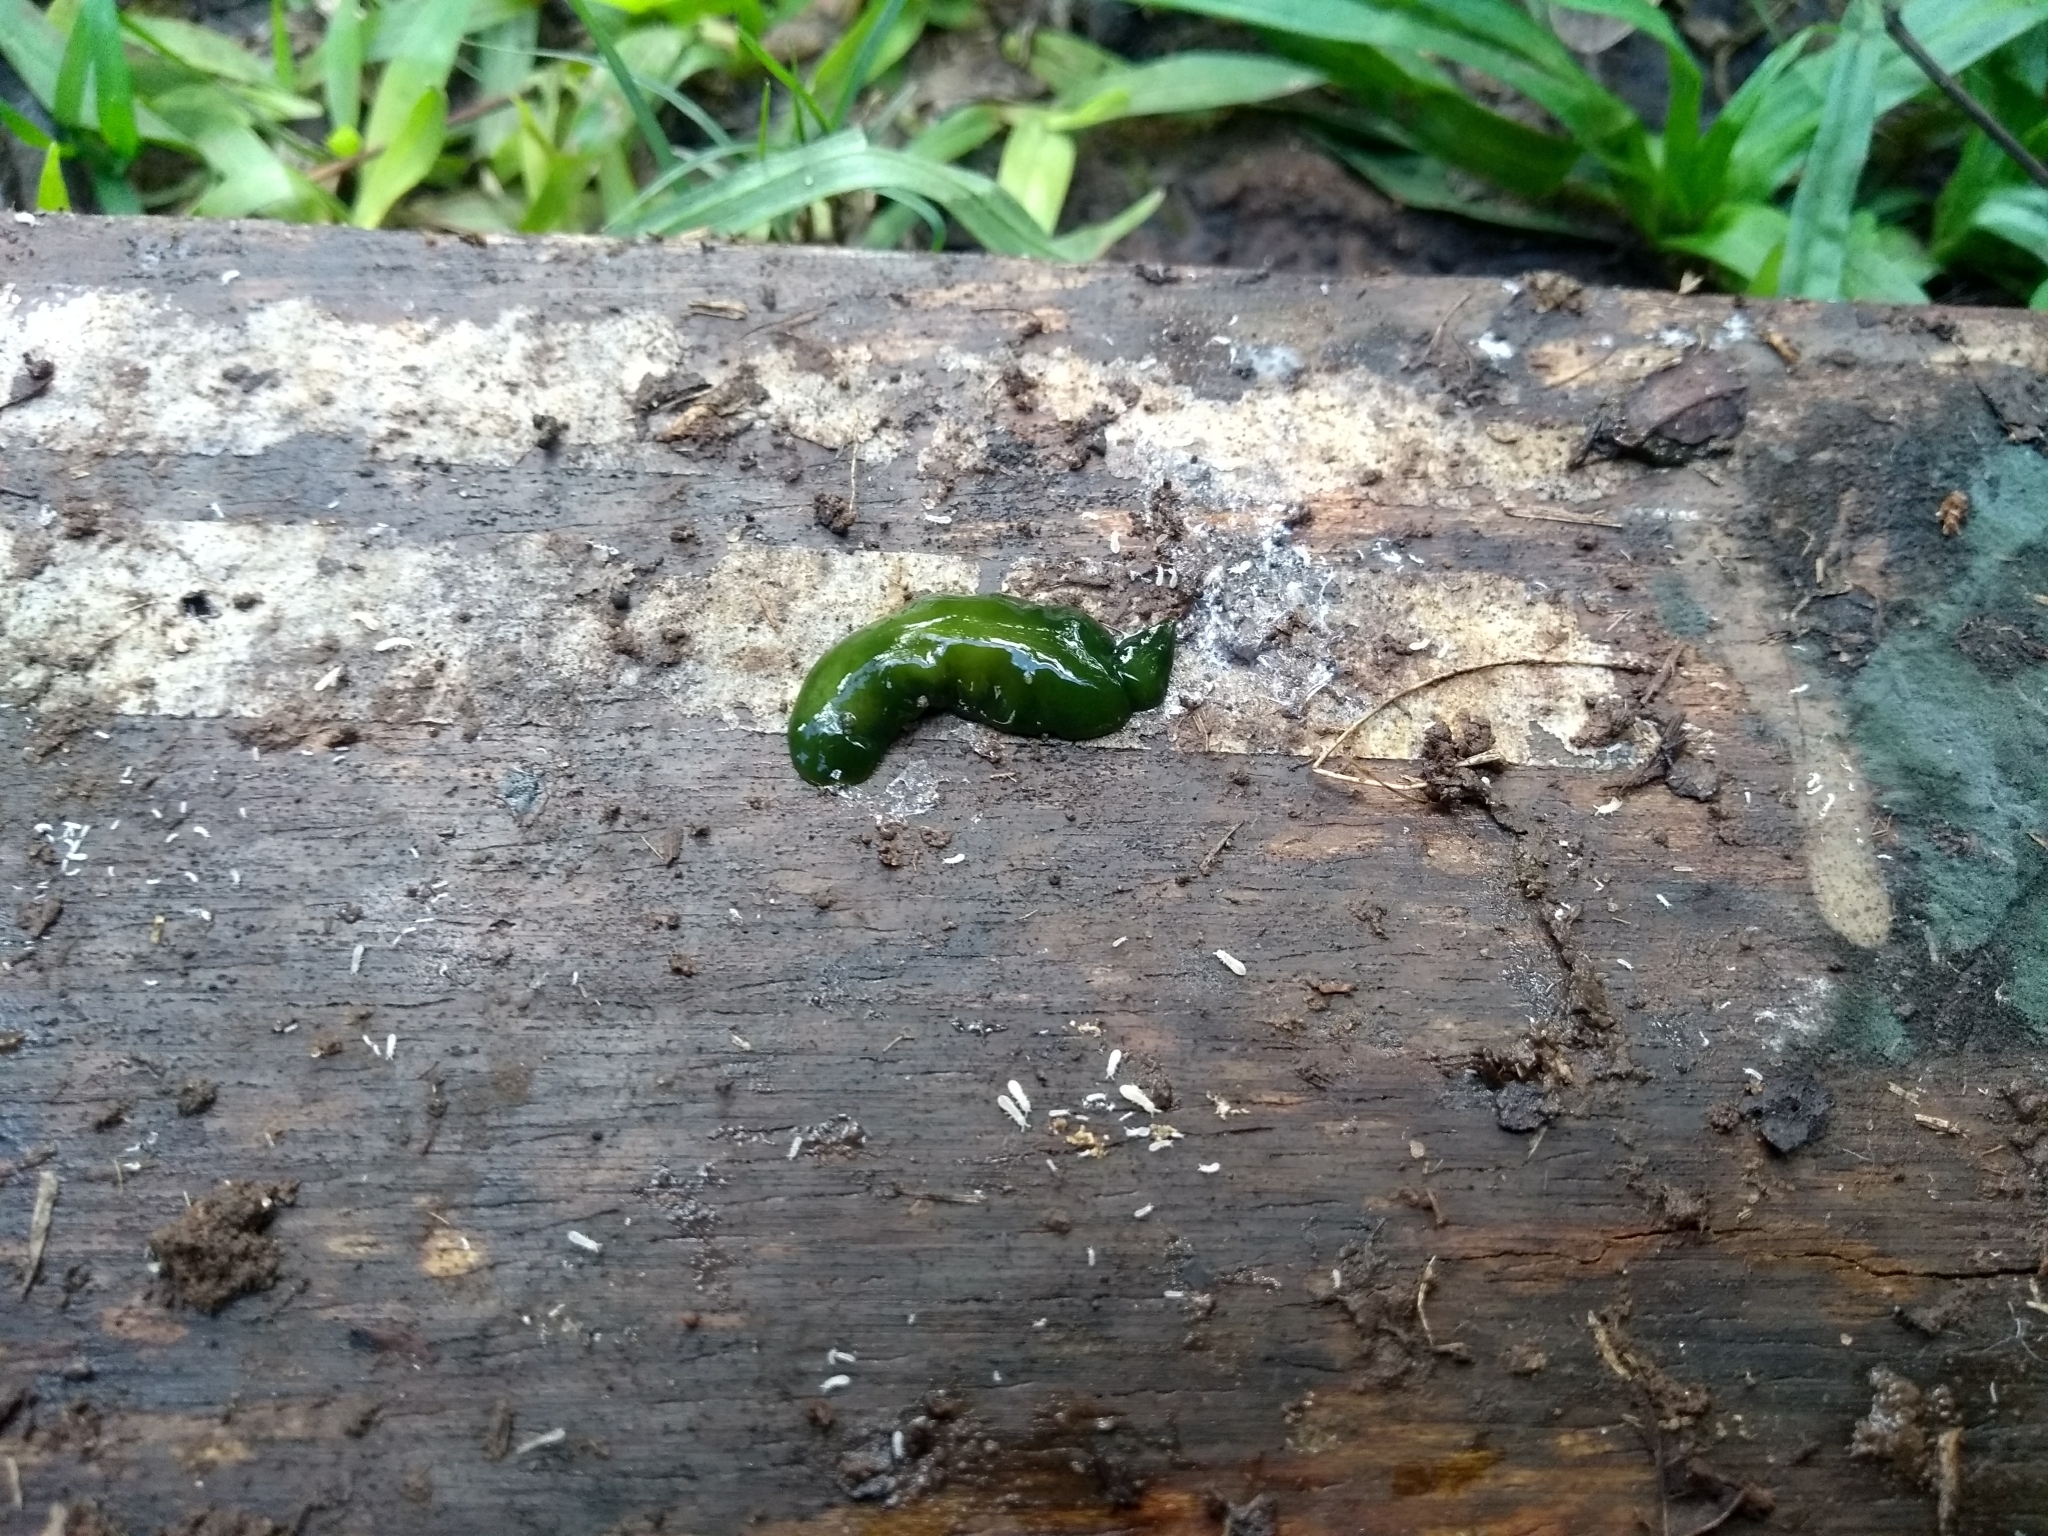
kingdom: Animalia
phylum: Platyhelminthes
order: Tricladida
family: Geoplanidae
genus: Obama
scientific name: Obama ladislavii
